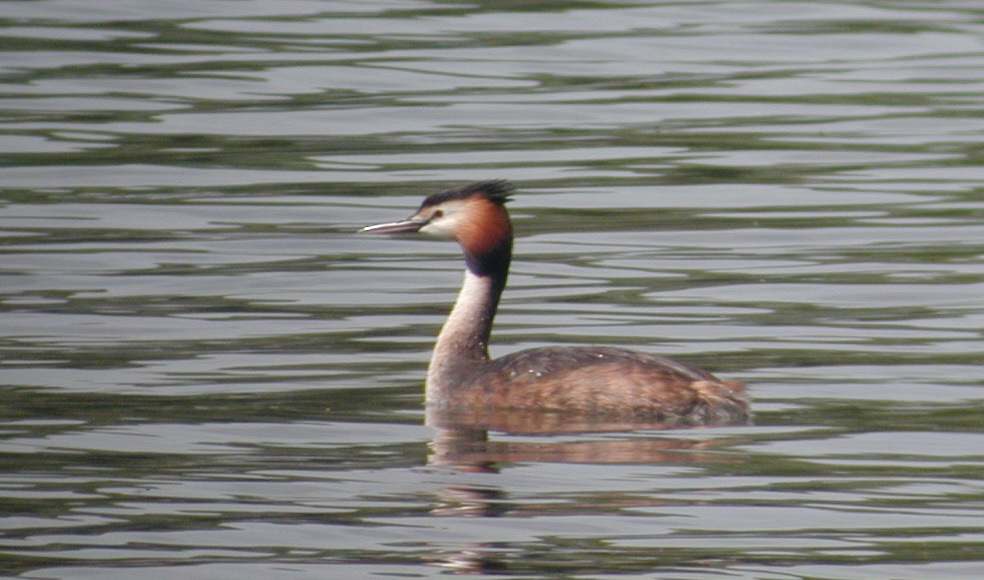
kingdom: Animalia
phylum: Chordata
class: Aves
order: Podicipediformes
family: Podicipedidae
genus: Podiceps
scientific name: Podiceps cristatus
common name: Great crested grebe
